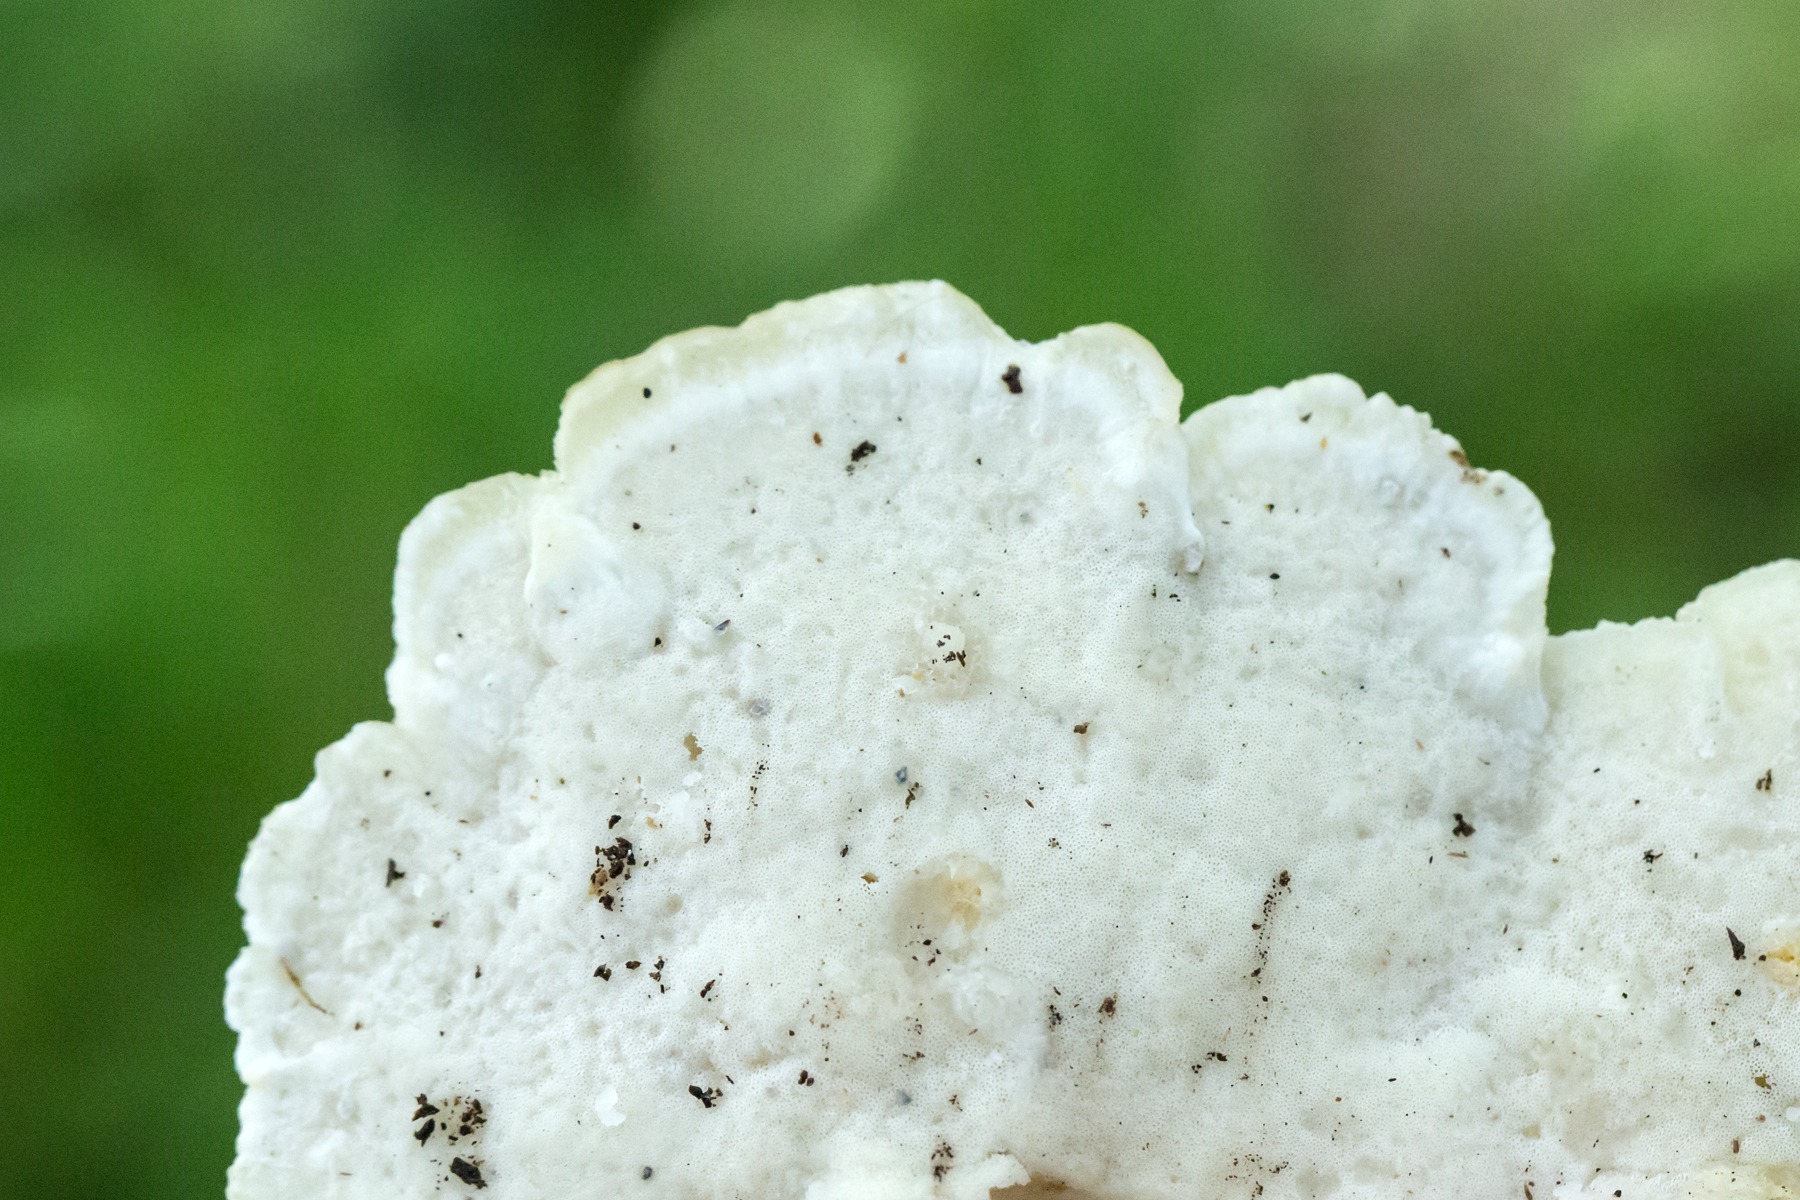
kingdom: Fungi
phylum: Basidiomycota
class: Agaricomycetes
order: Polyporales
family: Fomitopsidaceae
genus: Niveoporofomes
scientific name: Niveoporofomes spraguei
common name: Green cheese polypore
